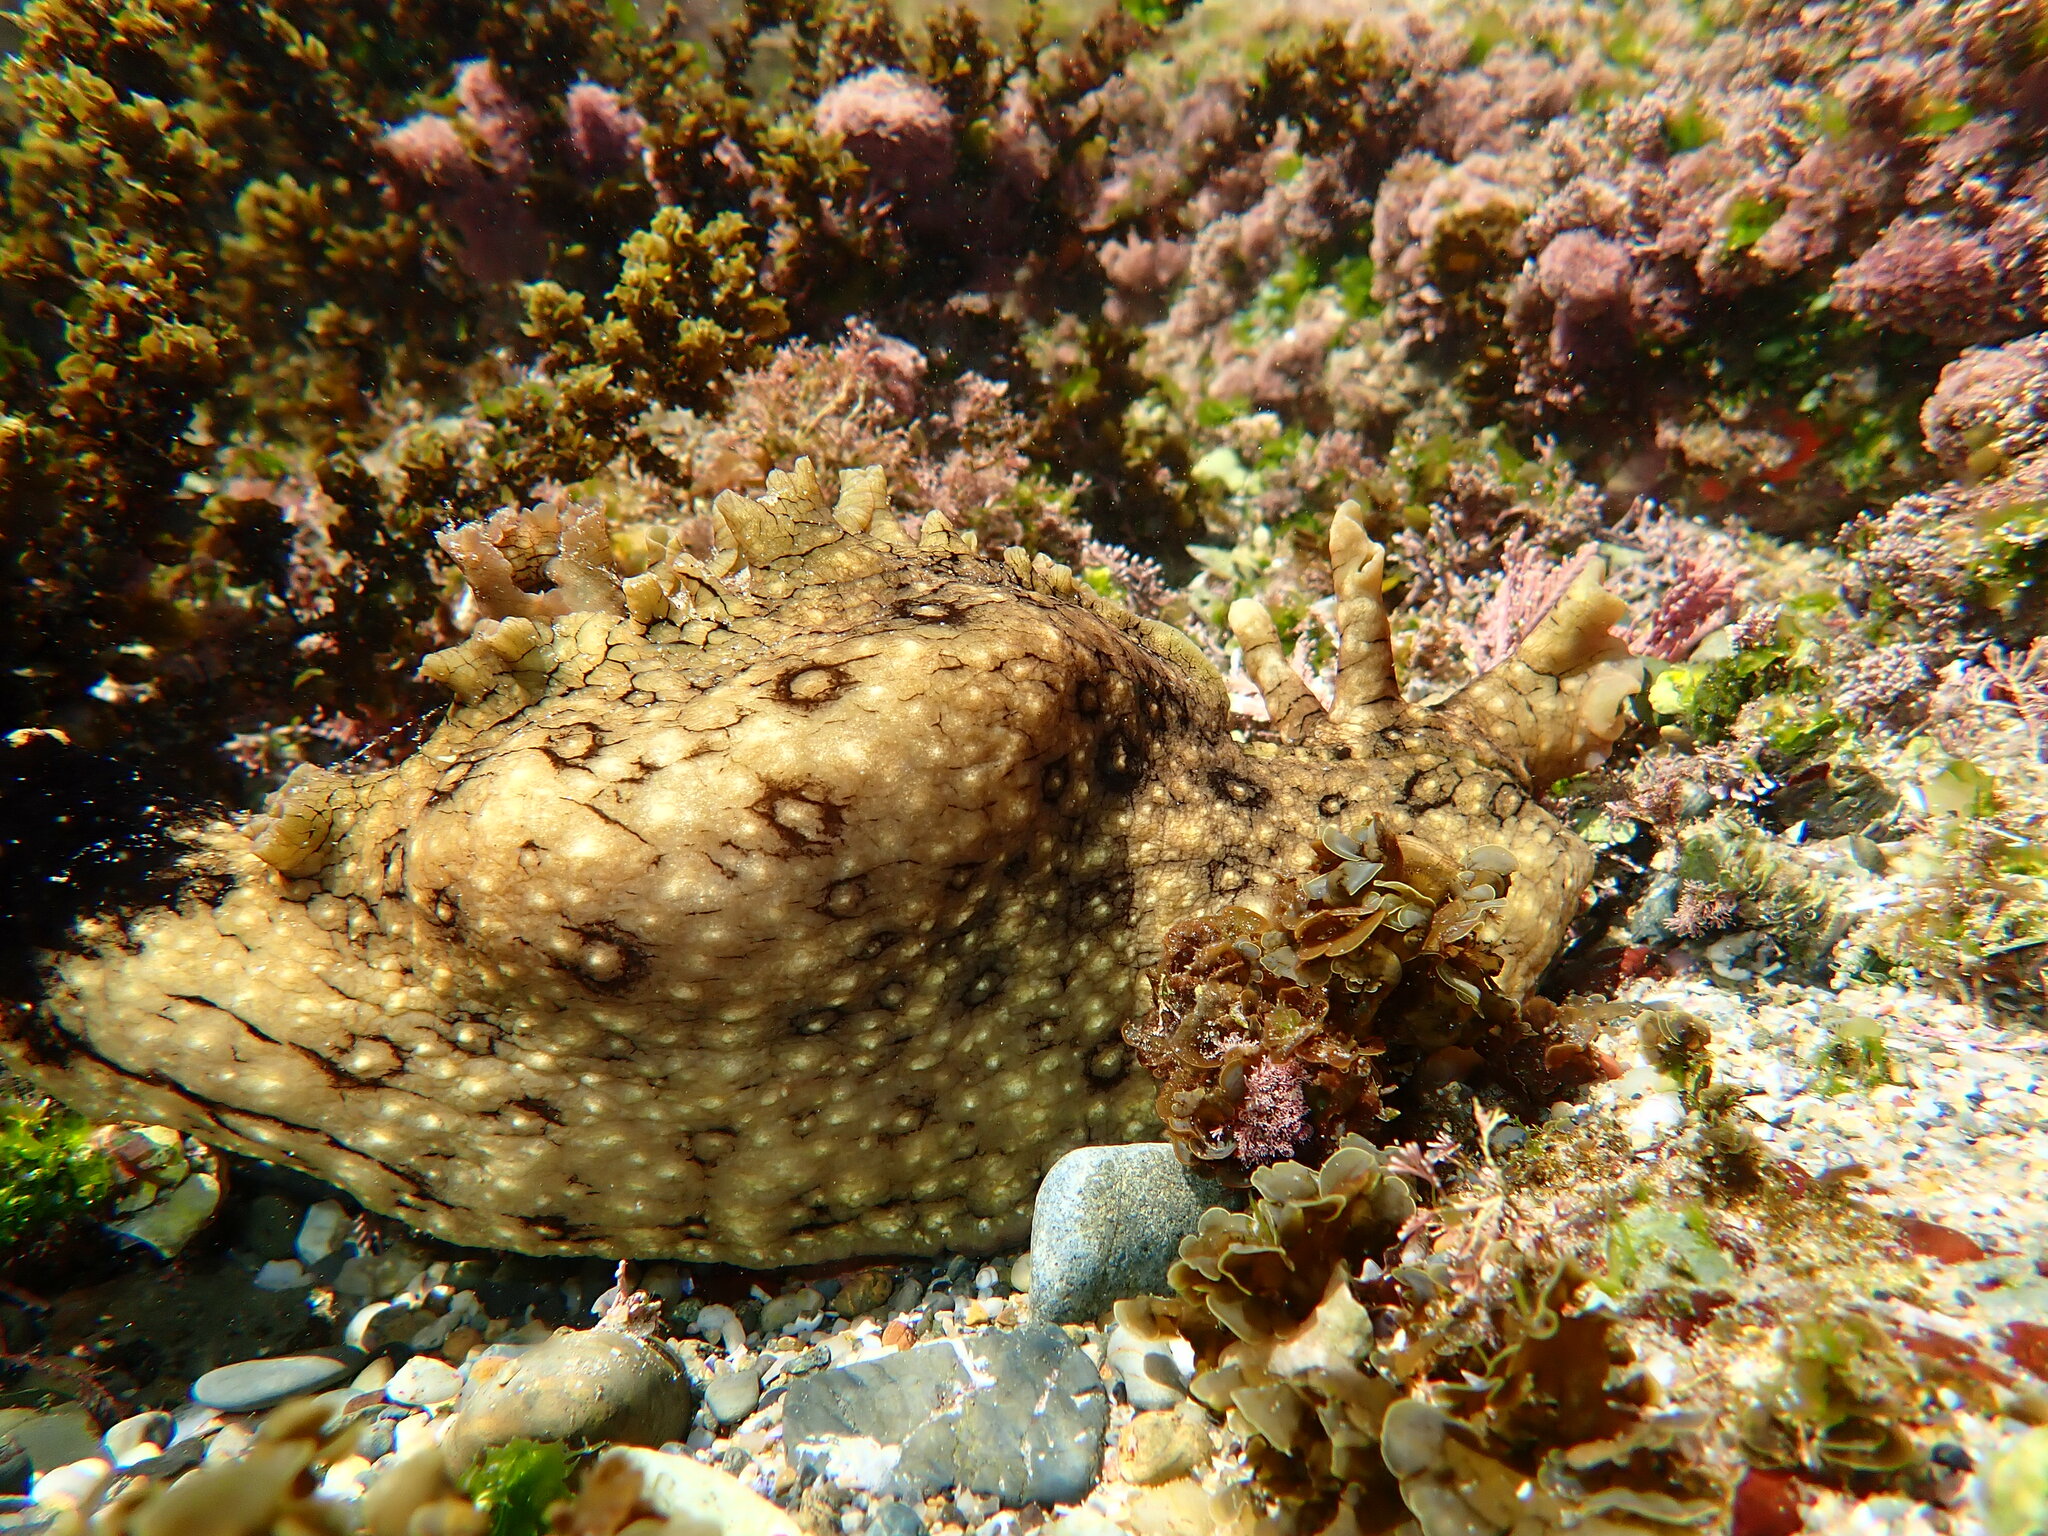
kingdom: Animalia
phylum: Mollusca
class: Gastropoda
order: Aplysiida
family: Aplysiidae
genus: Aplysia
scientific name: Aplysia argus
